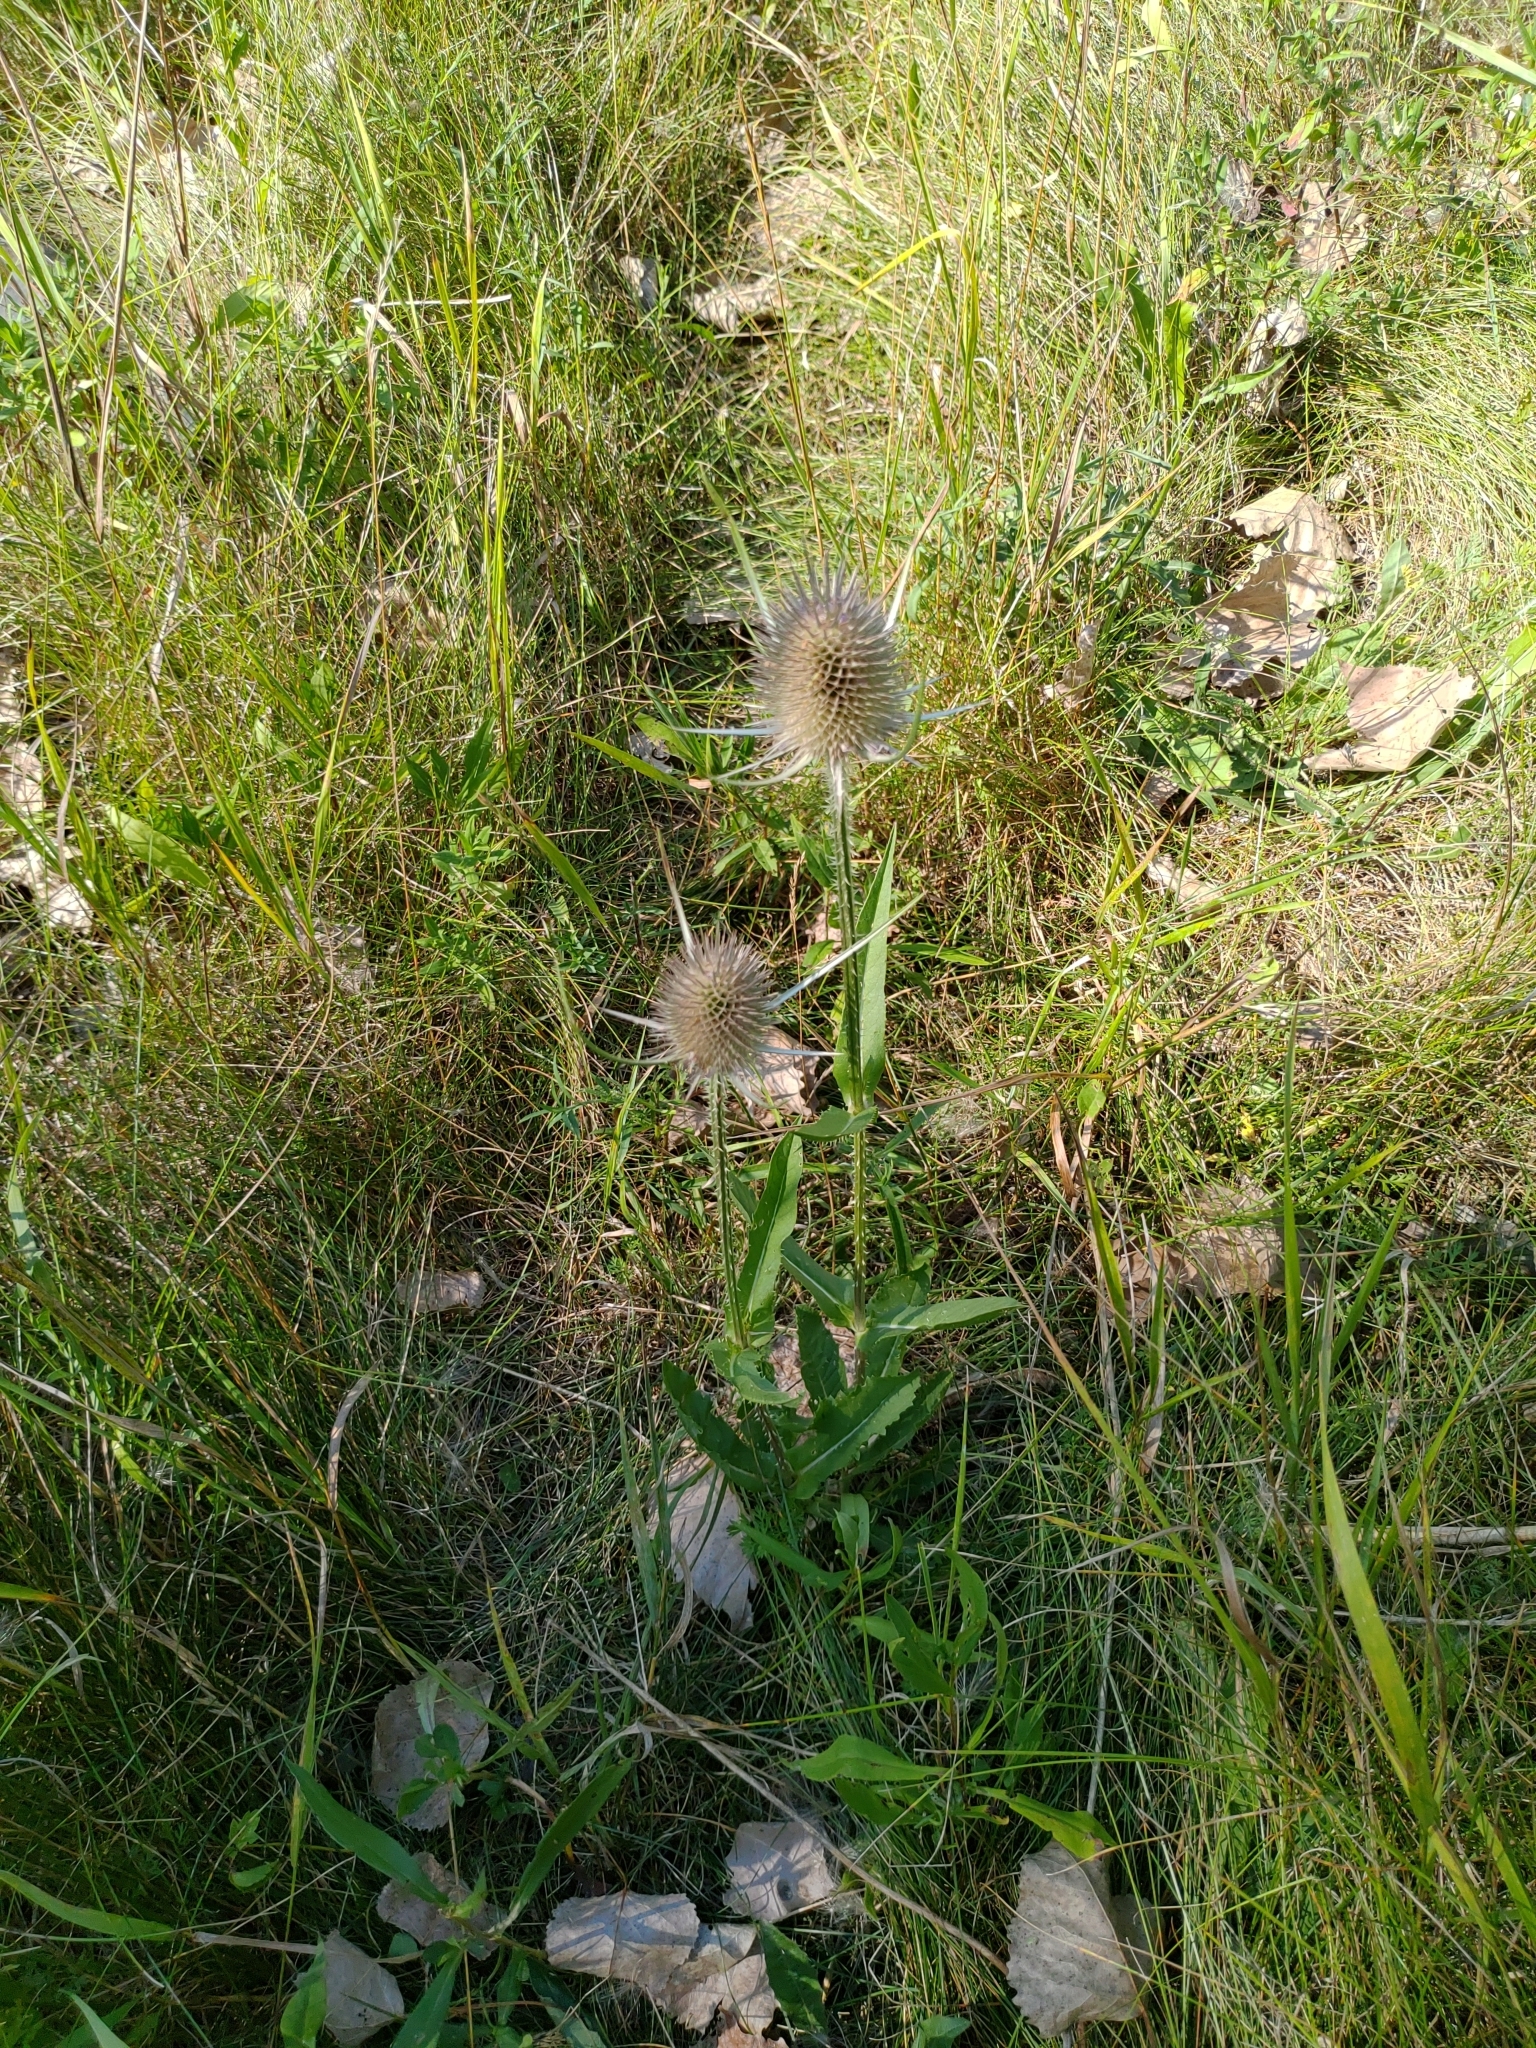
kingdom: Plantae
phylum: Tracheophyta
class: Magnoliopsida
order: Dipsacales
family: Caprifoliaceae
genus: Dipsacus
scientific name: Dipsacus fullonum
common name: Teasel
